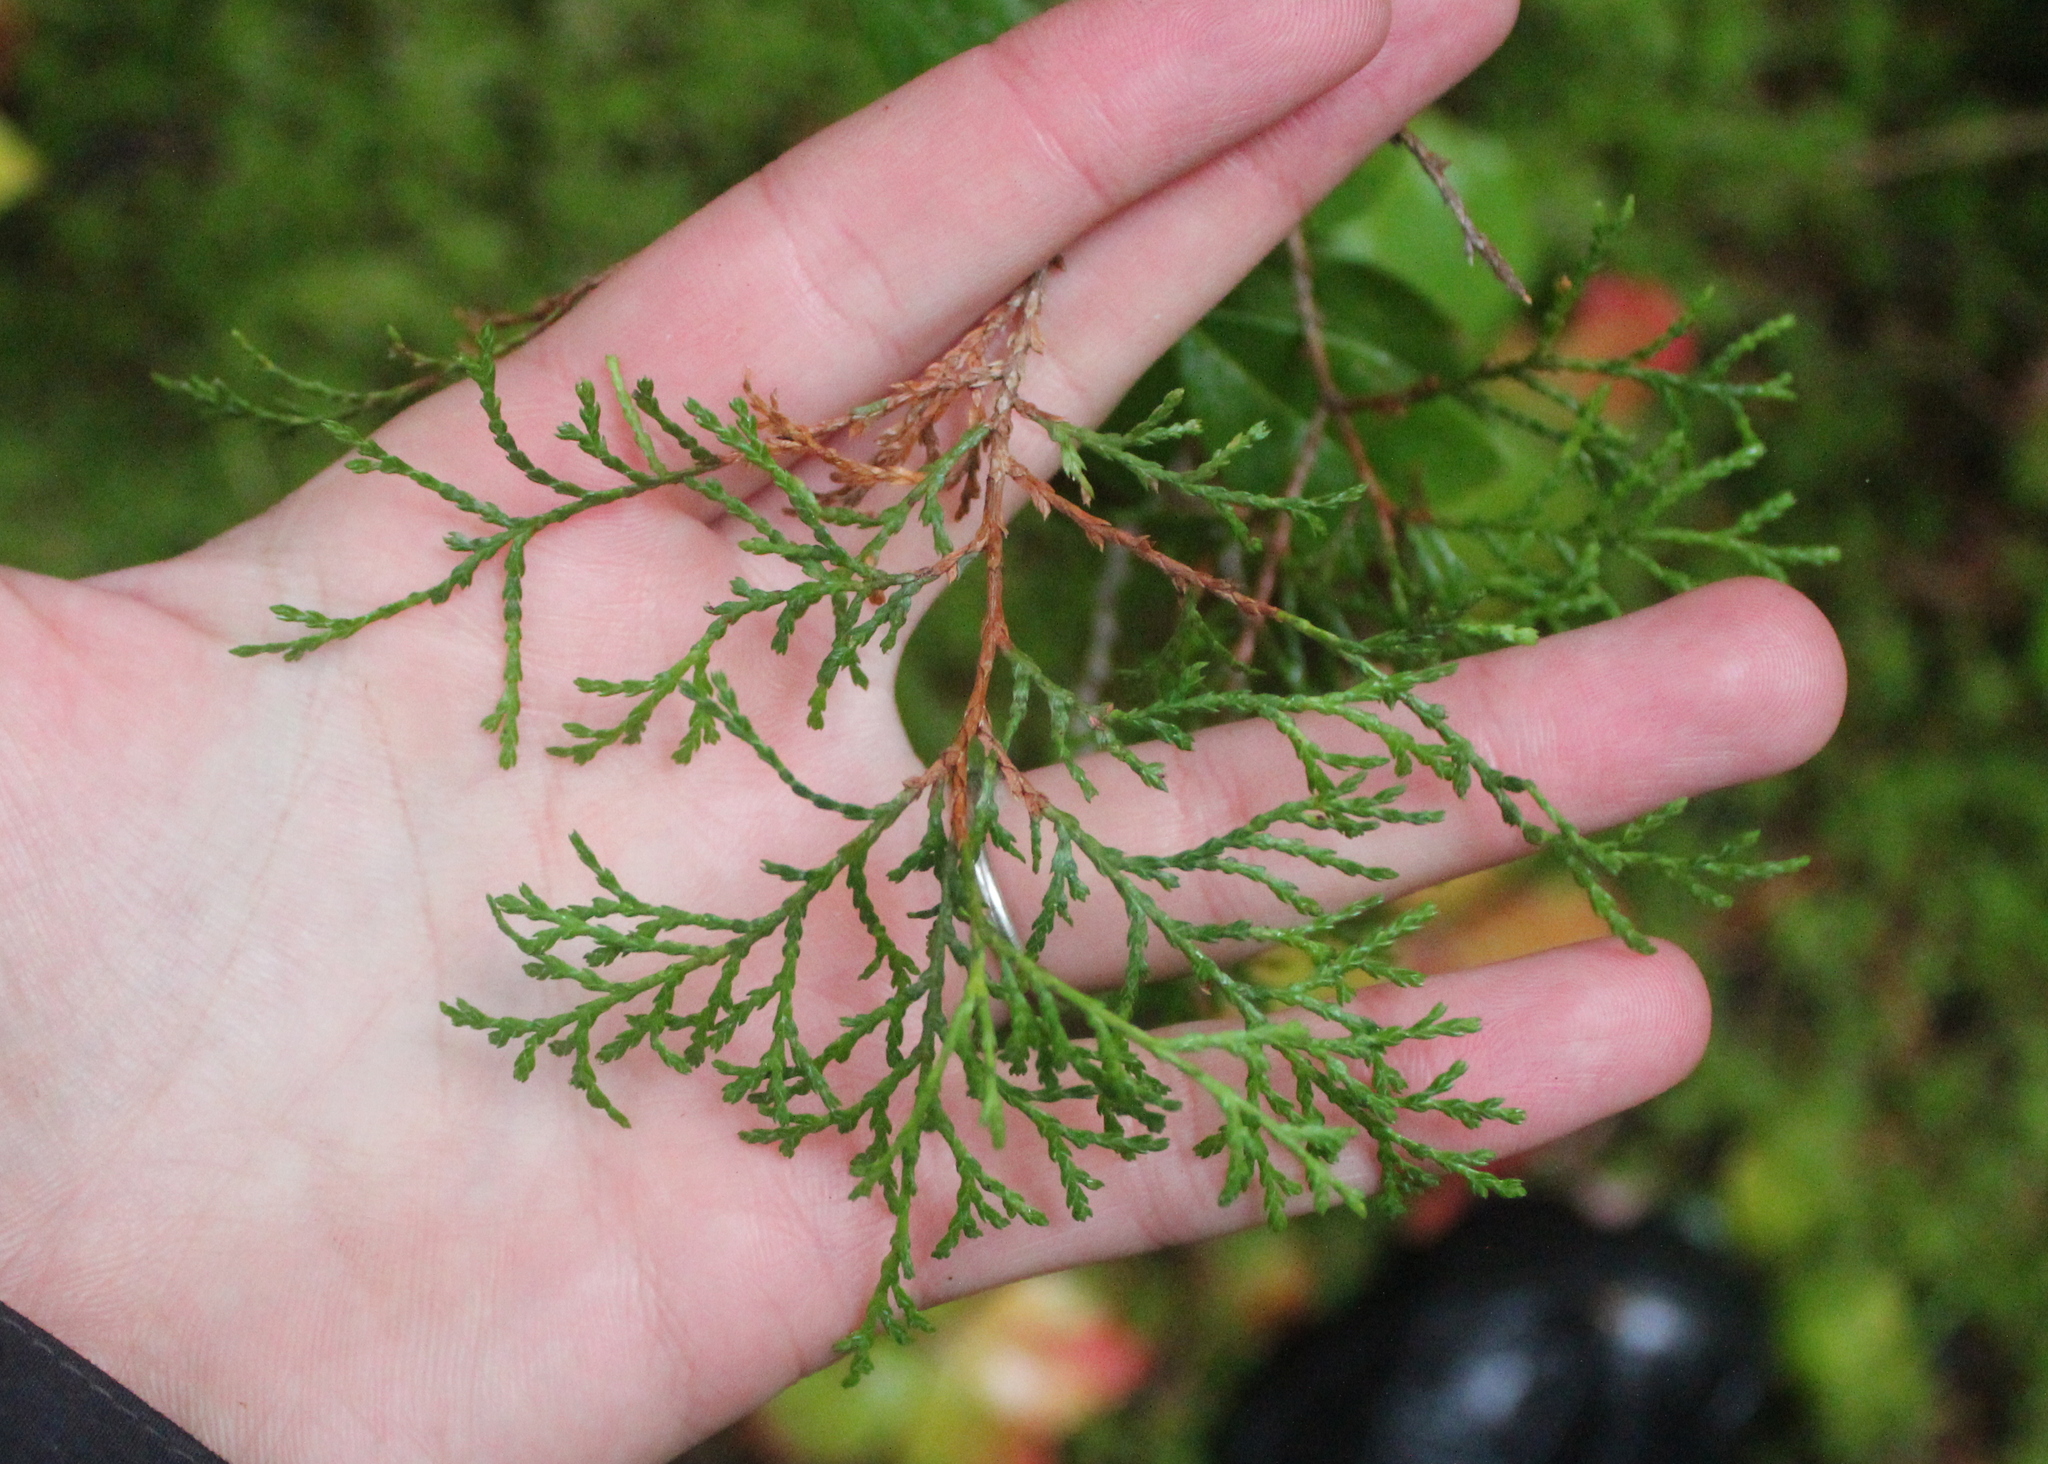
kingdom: Plantae
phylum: Tracheophyta
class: Pinopsida
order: Pinales
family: Cupressaceae
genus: Chamaecyparis
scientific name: Chamaecyparis thyoides
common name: Atlantic white cedar
